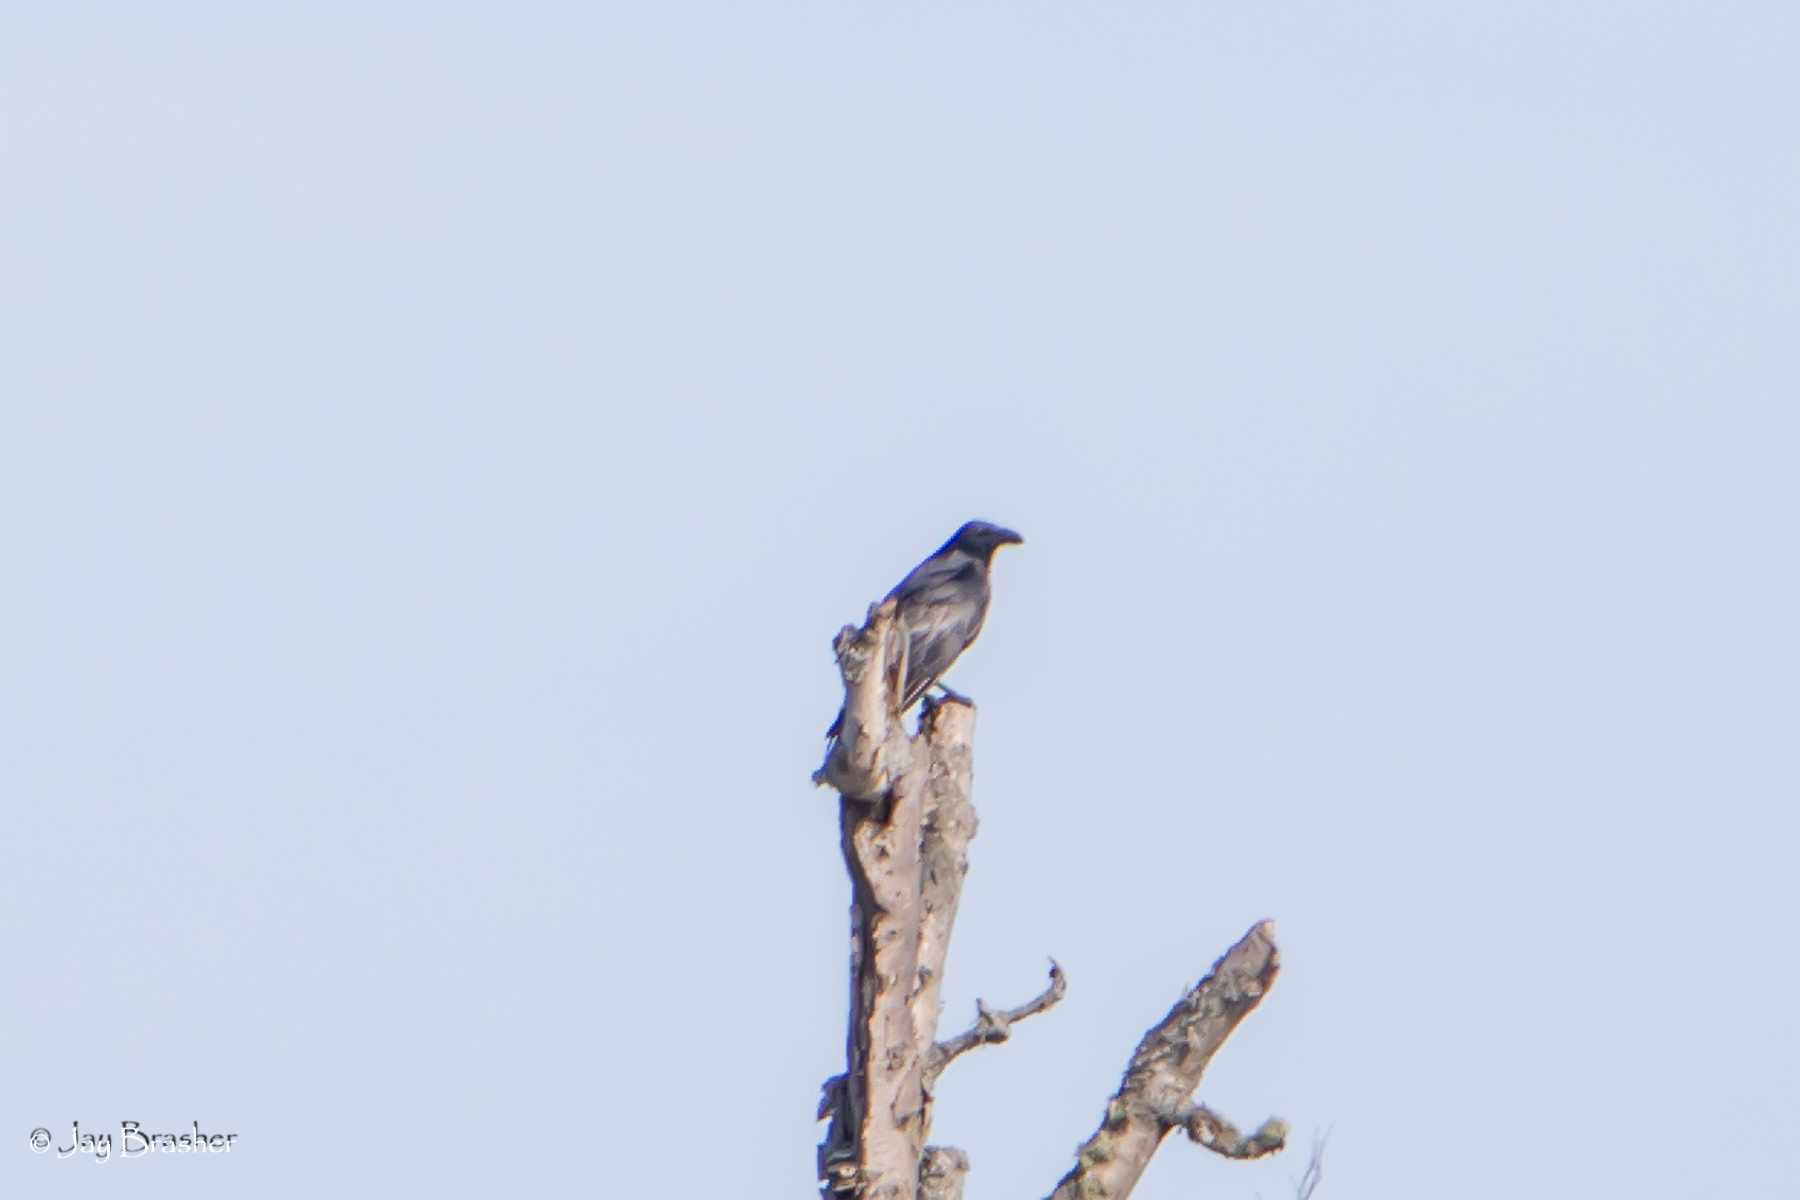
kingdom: Animalia
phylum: Chordata
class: Aves
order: Passeriformes
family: Corvidae
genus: Corvus
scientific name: Corvus corax
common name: Common raven
